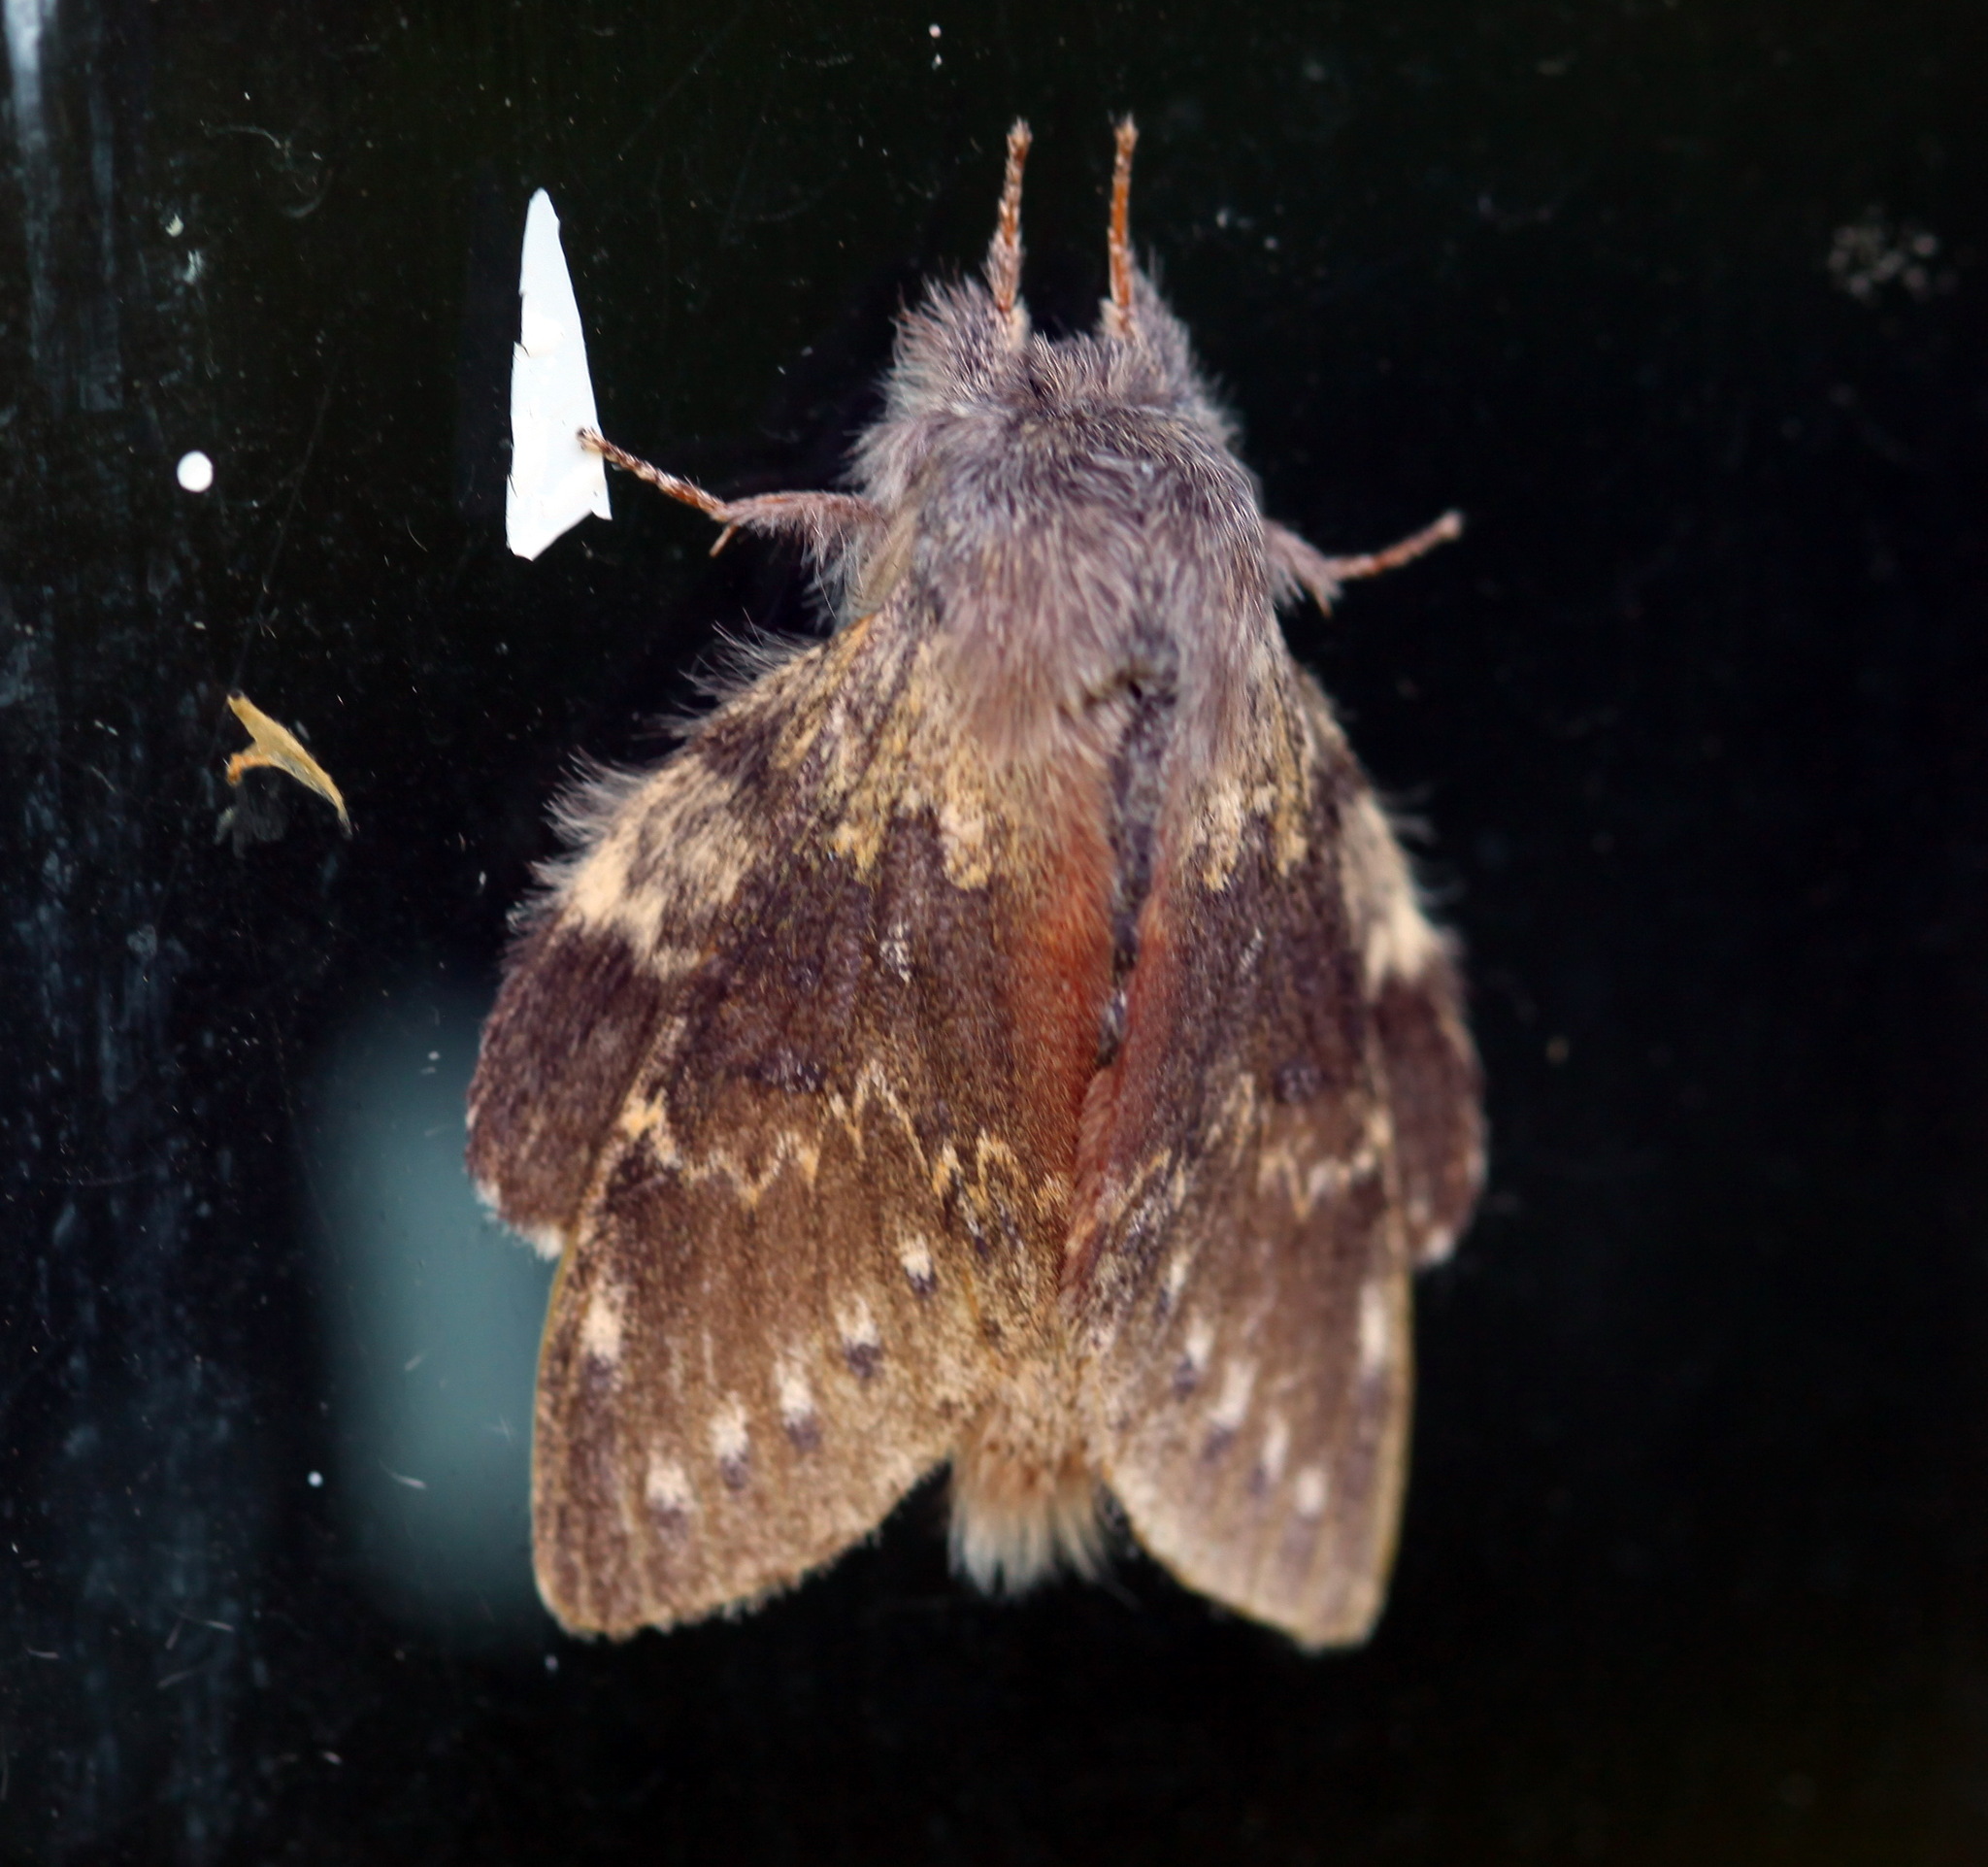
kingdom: Animalia
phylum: Arthropoda
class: Insecta
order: Lepidoptera
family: Notodontidae
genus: Stauropus
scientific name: Stauropus fagi
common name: Lobster moth
